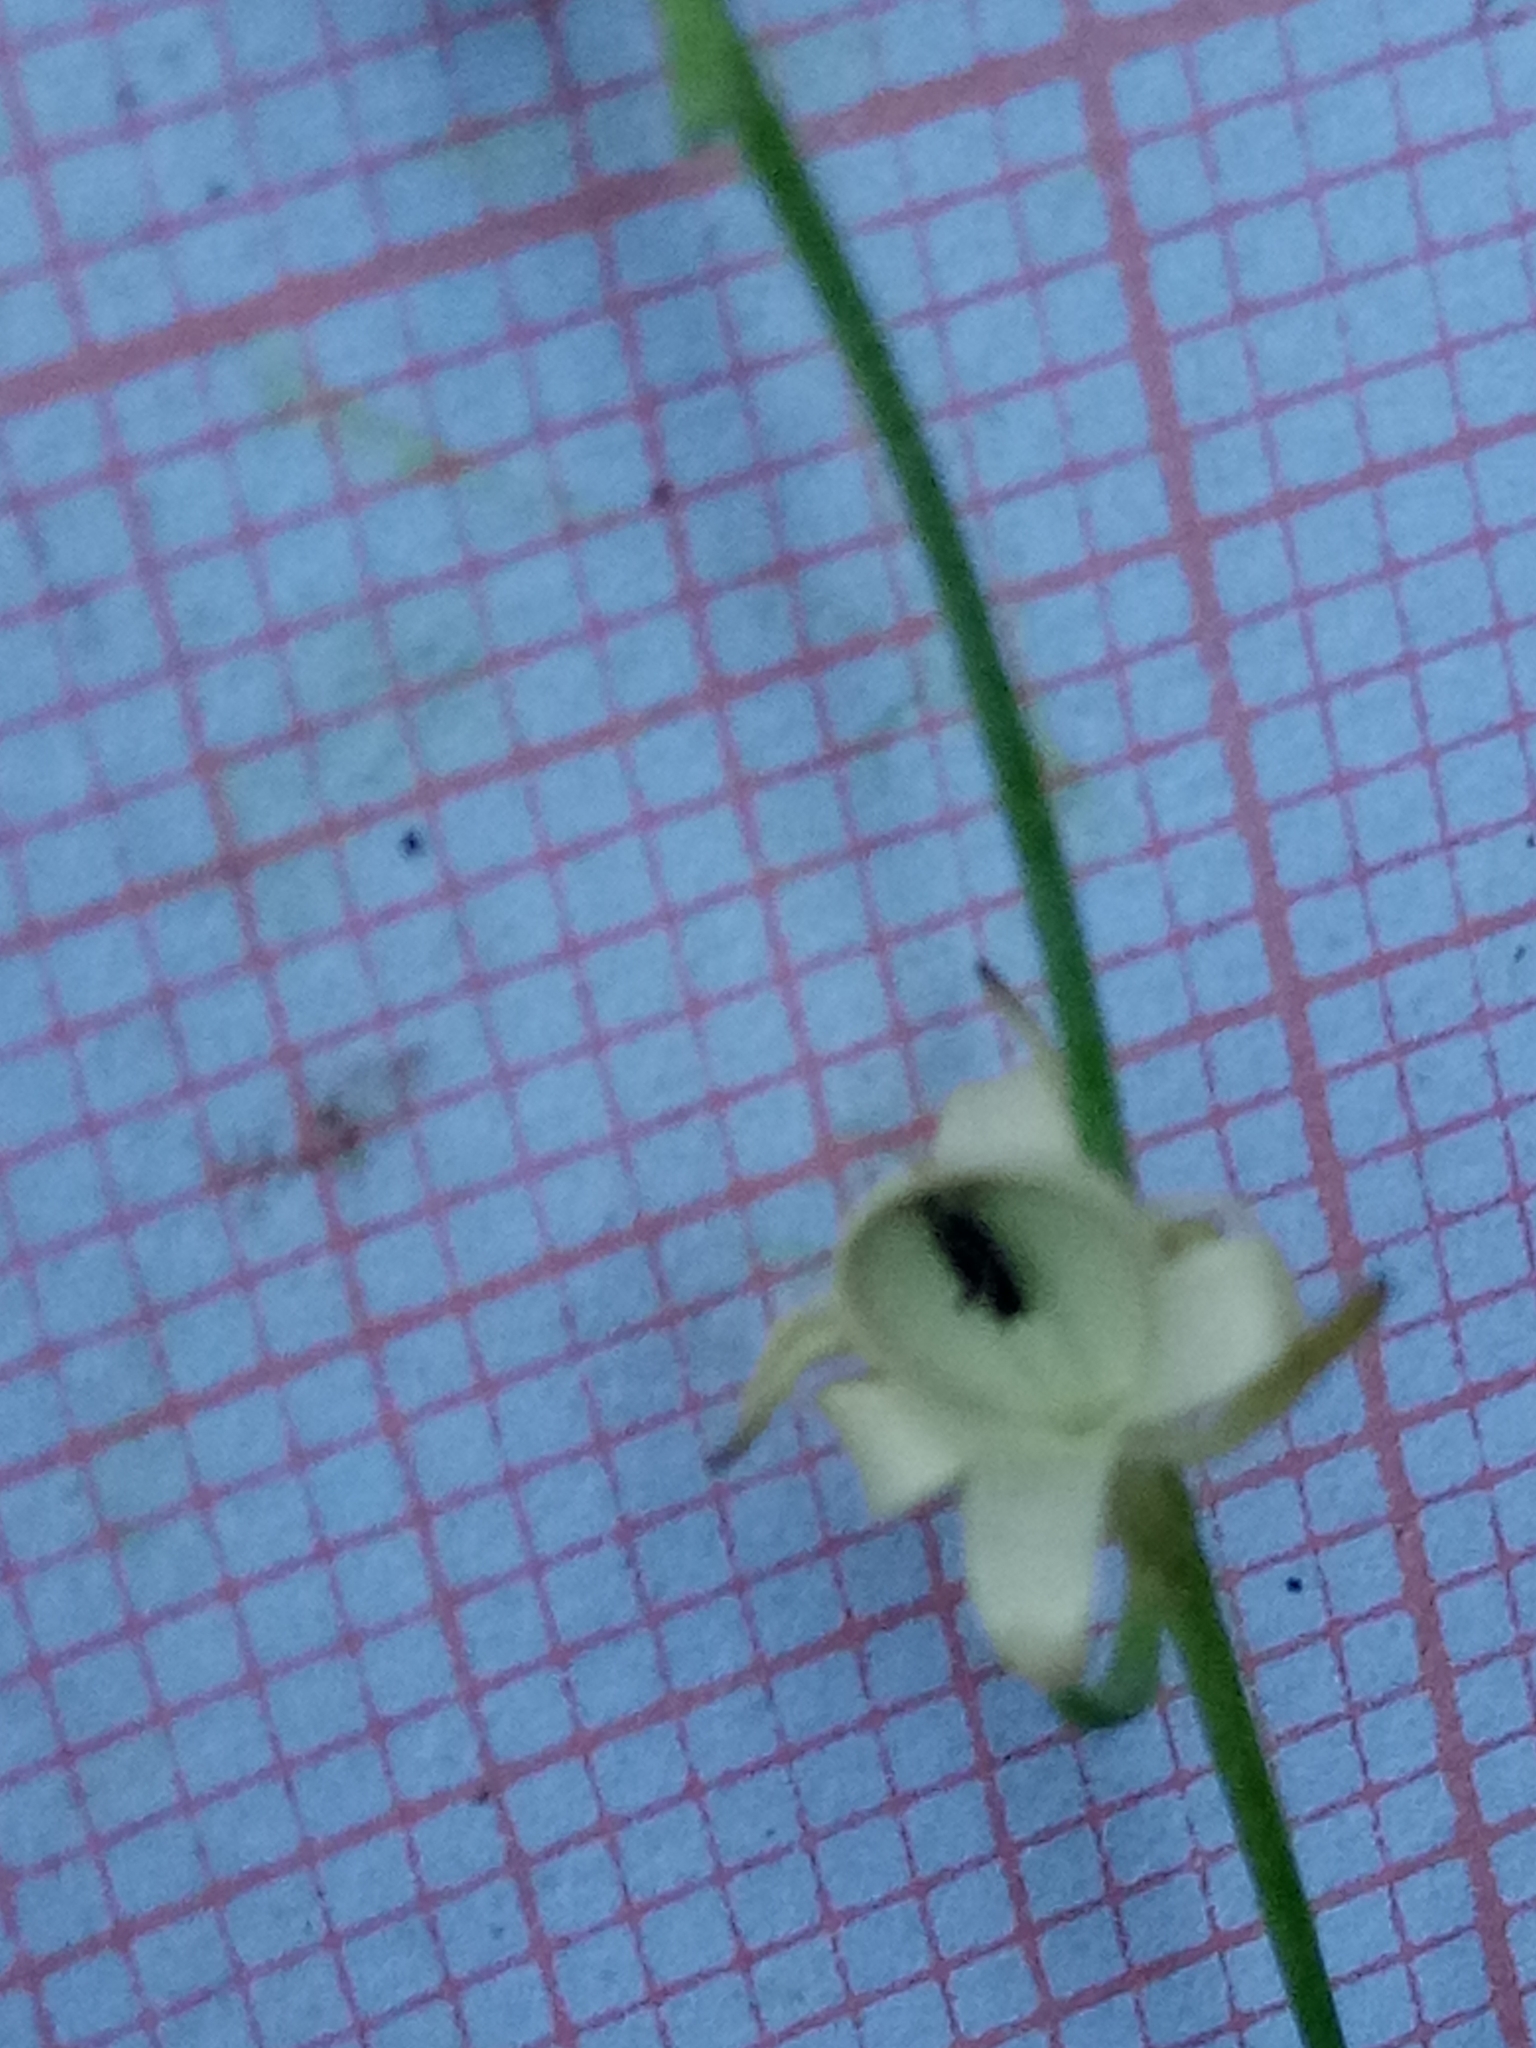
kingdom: Plantae
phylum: Tracheophyta
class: Magnoliopsida
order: Lamiales
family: Plantaginaceae
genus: Linaria
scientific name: Linaria simplex
